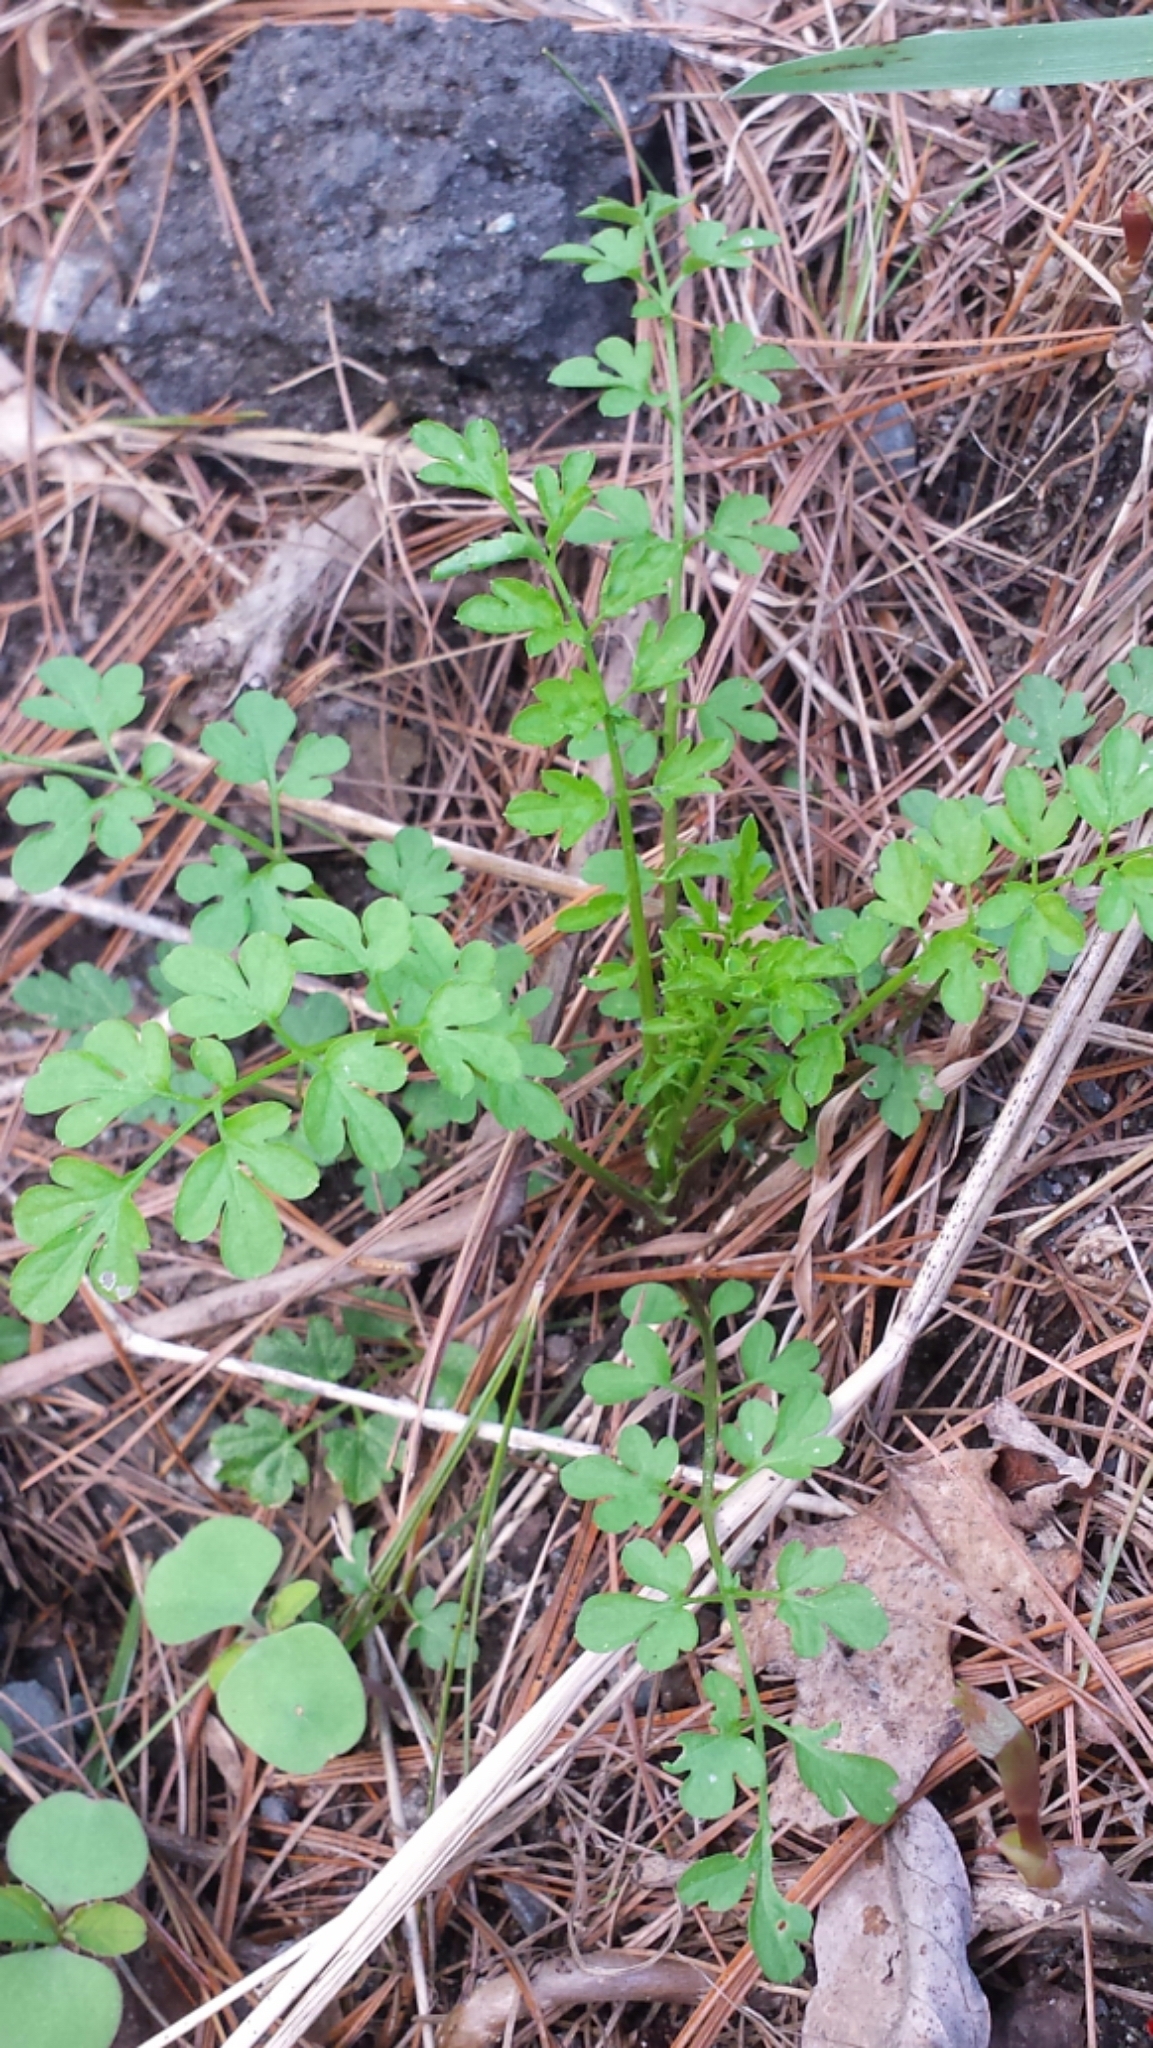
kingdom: Plantae
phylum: Tracheophyta
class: Magnoliopsida
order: Brassicales
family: Brassicaceae
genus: Cardamine
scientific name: Cardamine impatiens
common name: Narrow-leaved bitter-cress
